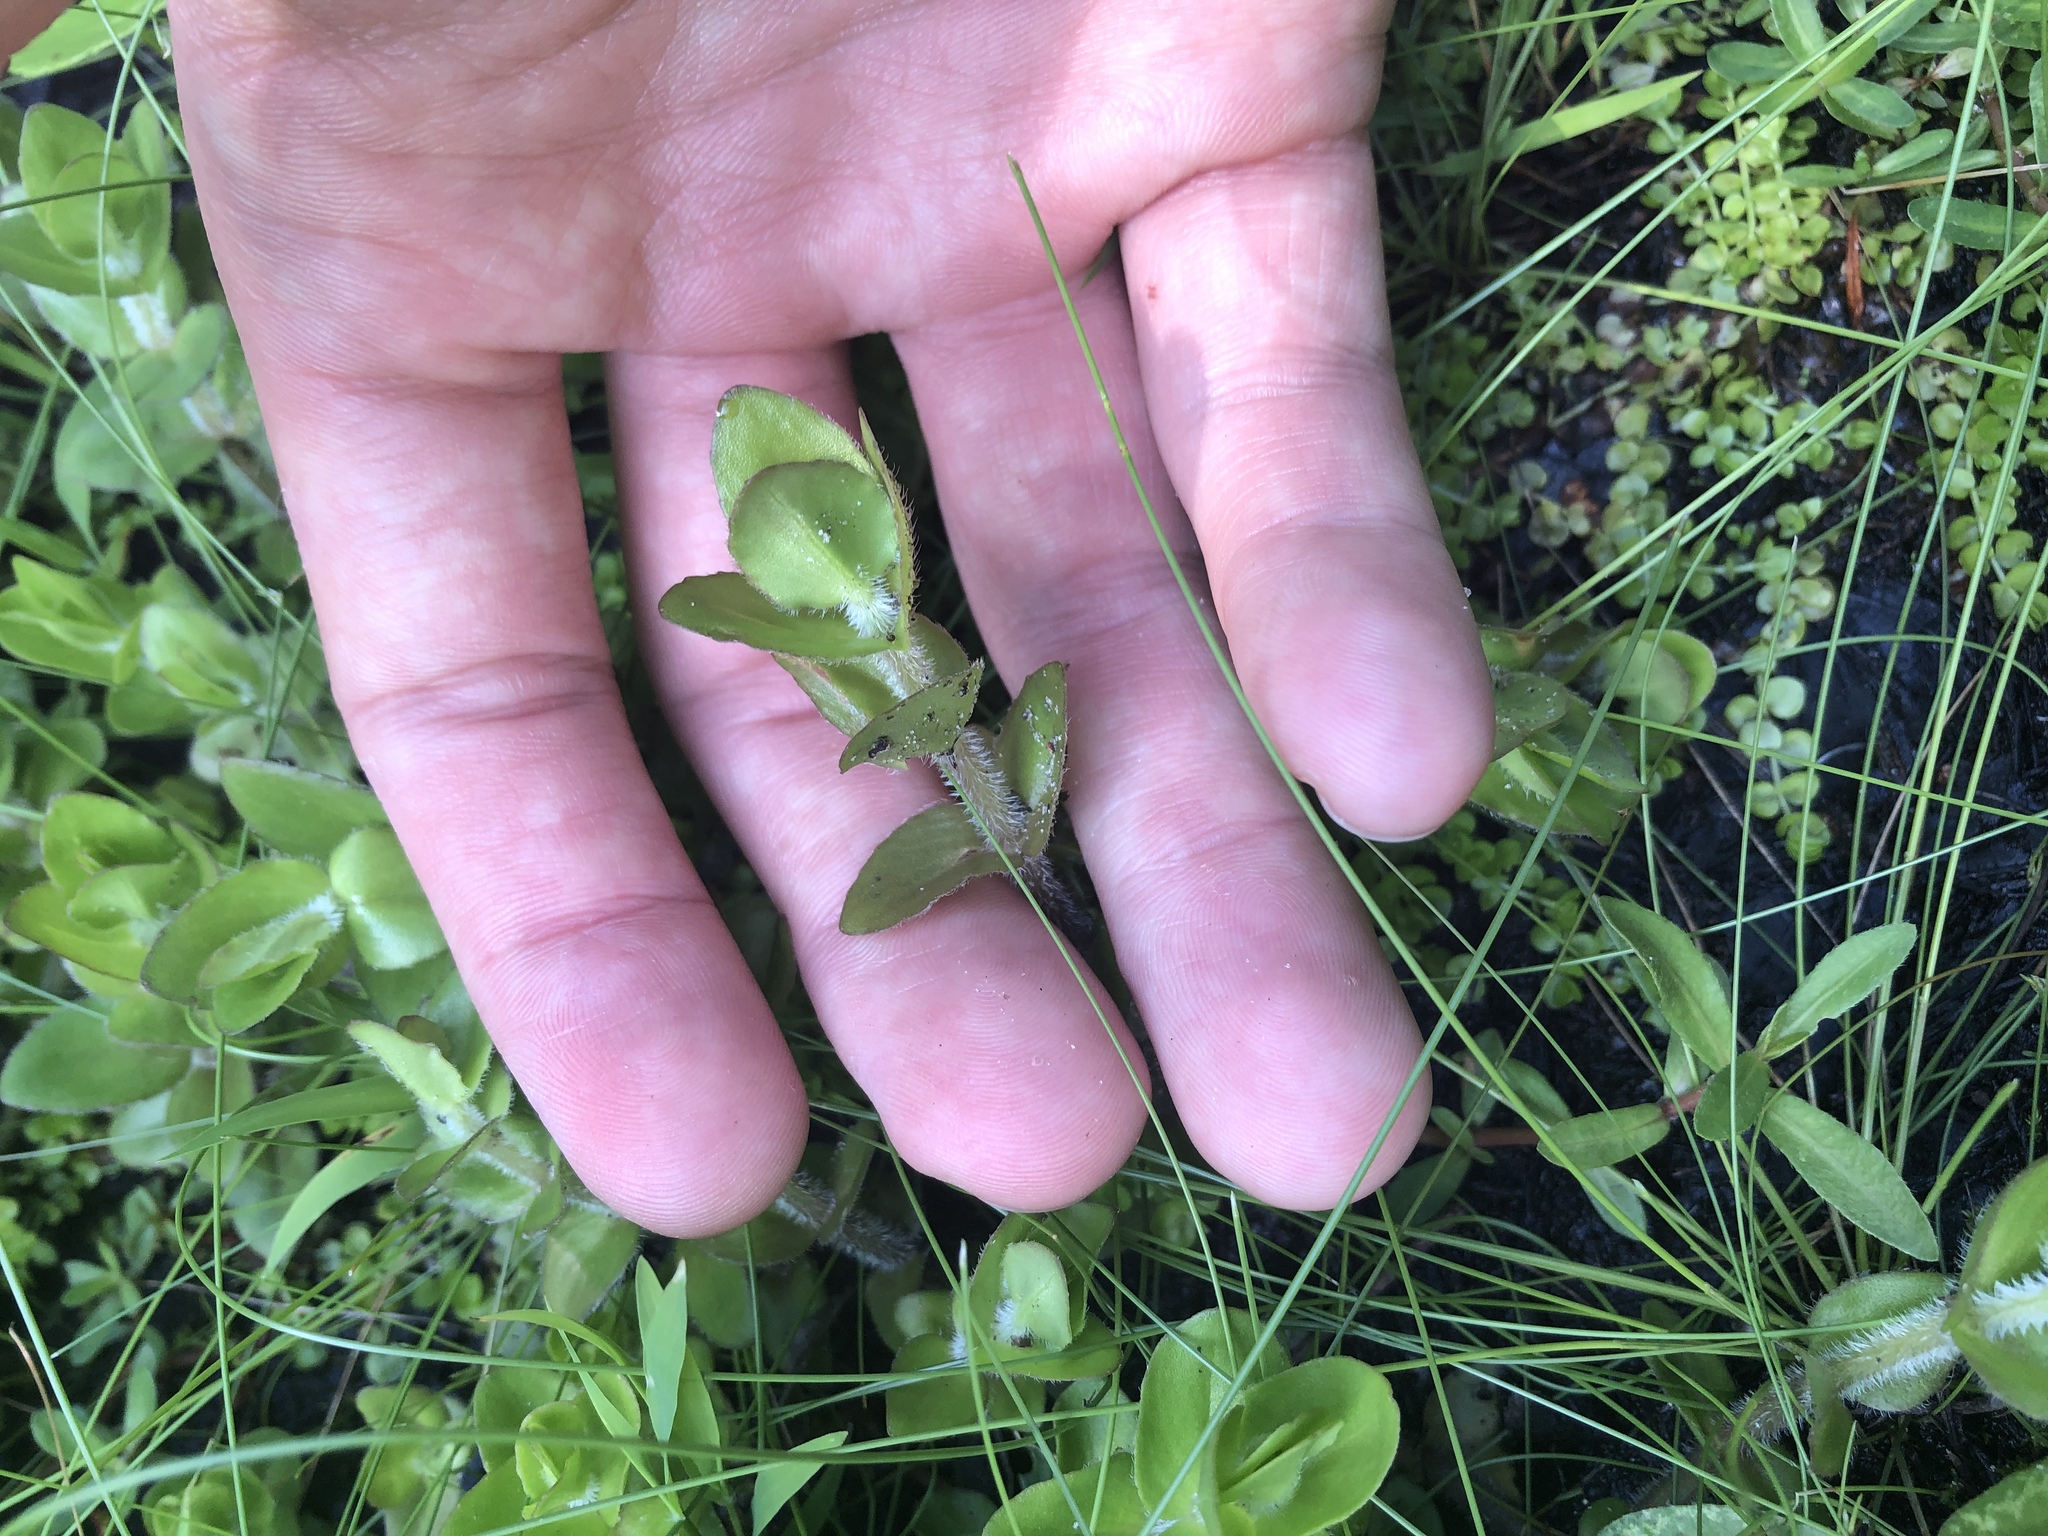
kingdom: Plantae
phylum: Tracheophyta
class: Magnoliopsida
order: Lamiales
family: Plantaginaceae
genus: Bacopa
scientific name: Bacopa caroliniana
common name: Lemon bacopa
